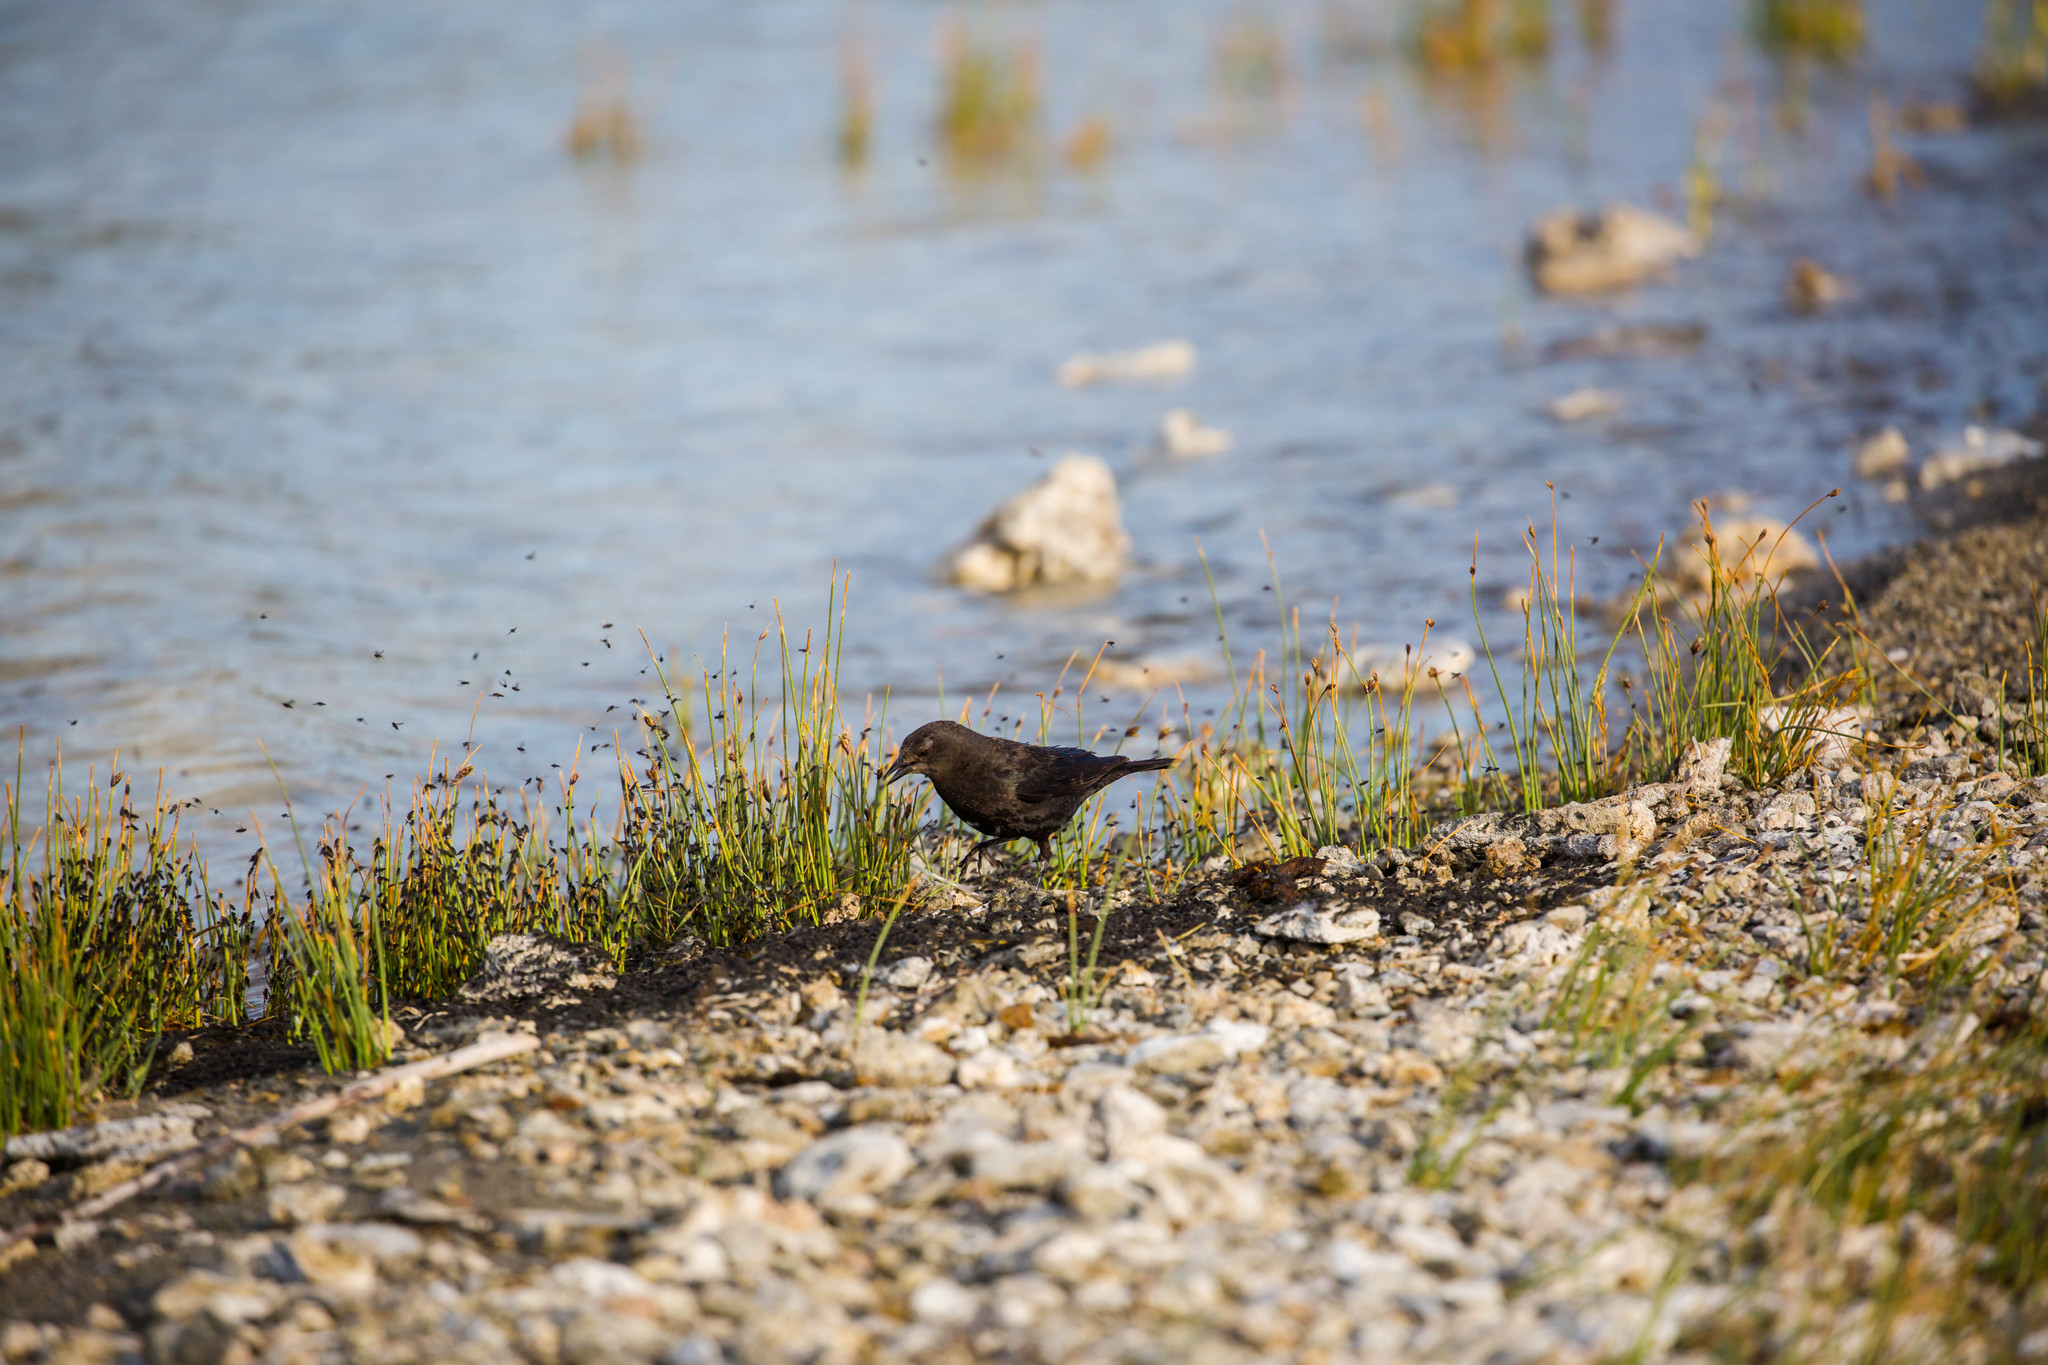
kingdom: Animalia
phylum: Chordata
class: Aves
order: Passeriformes
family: Icteridae
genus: Euphagus
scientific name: Euphagus cyanocephalus
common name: Brewer's blackbird
